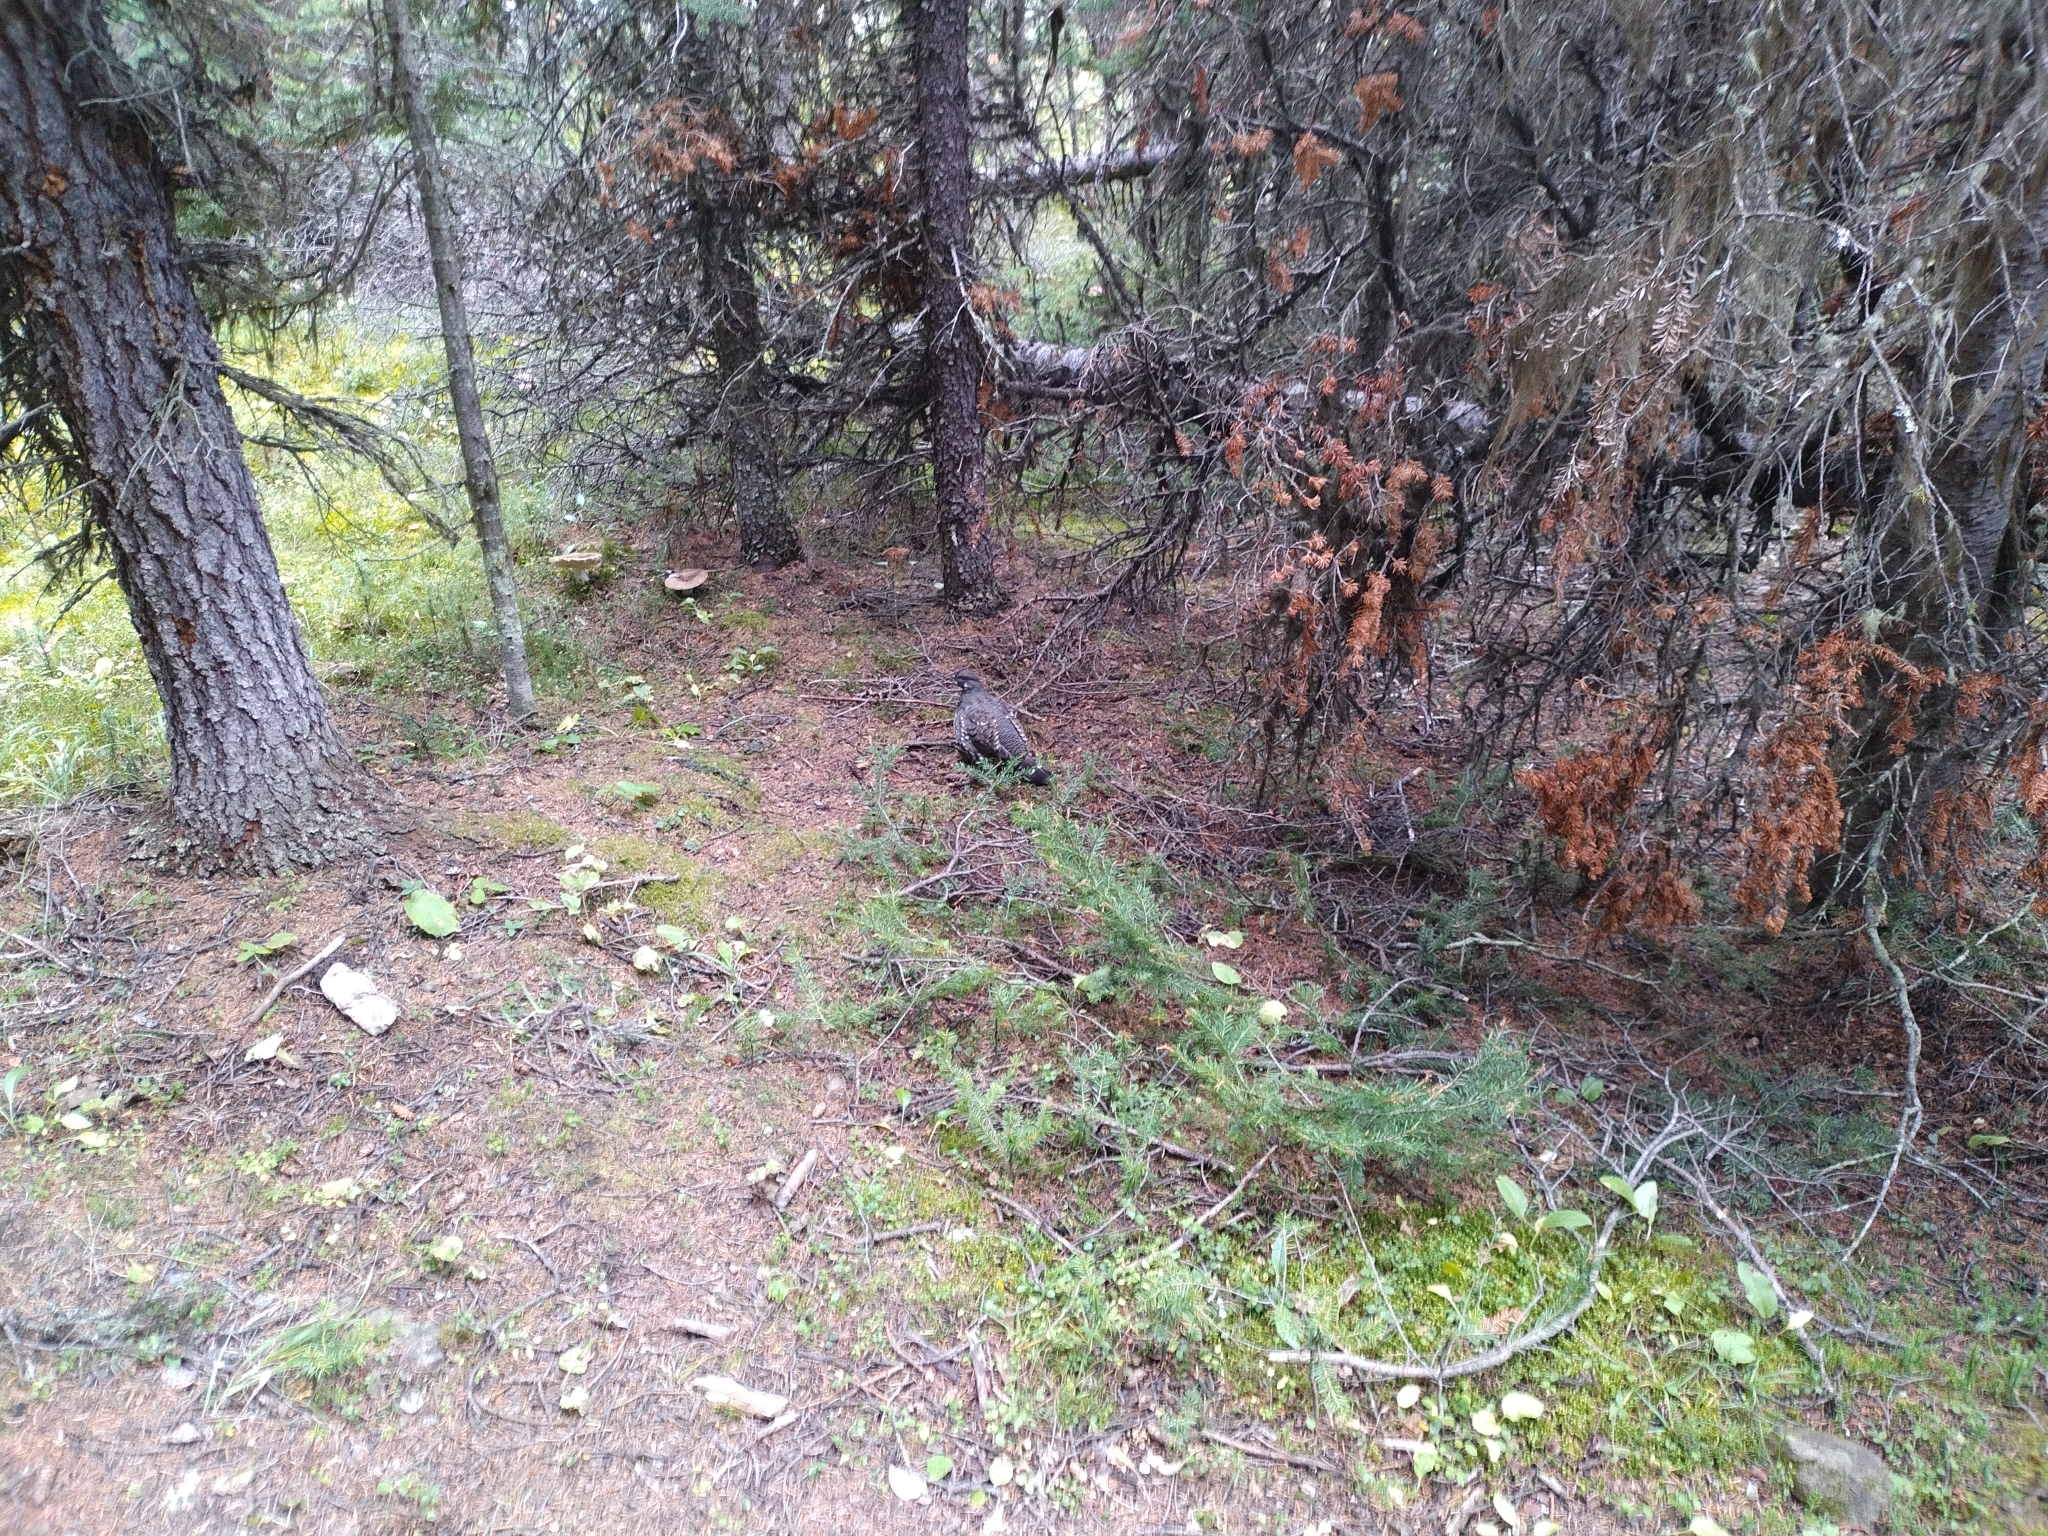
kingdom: Animalia
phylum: Chordata
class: Aves
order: Galliformes
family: Phasianidae
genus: Canachites
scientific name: Canachites canadensis
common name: Spruce grouse
